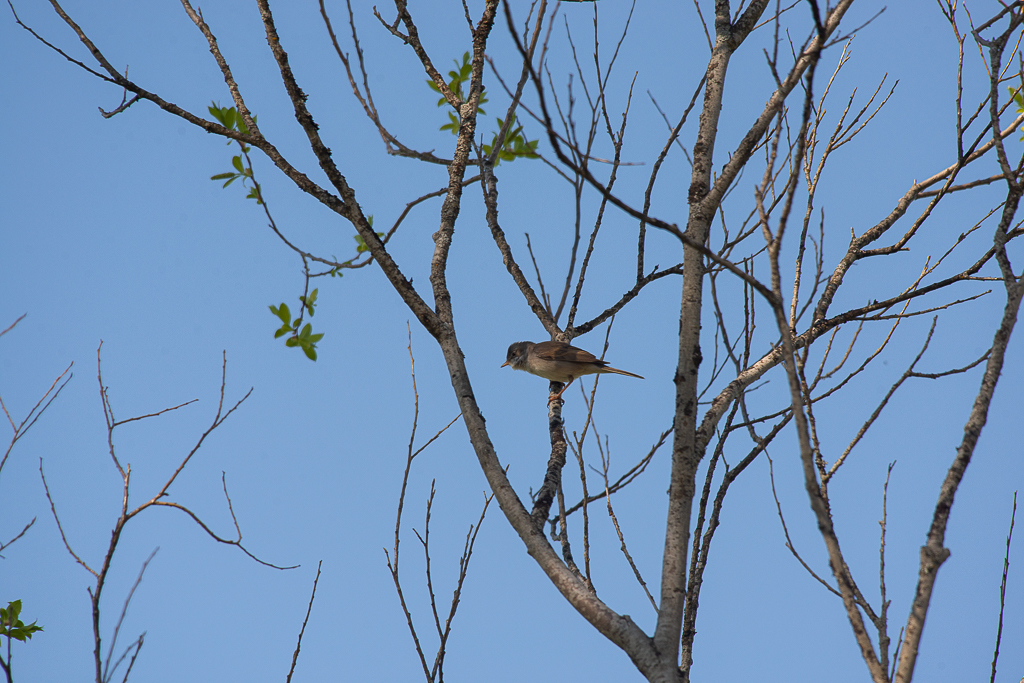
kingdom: Animalia
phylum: Chordata
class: Aves
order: Passeriformes
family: Sylviidae
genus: Sylvia
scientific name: Sylvia communis
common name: Common whitethroat
